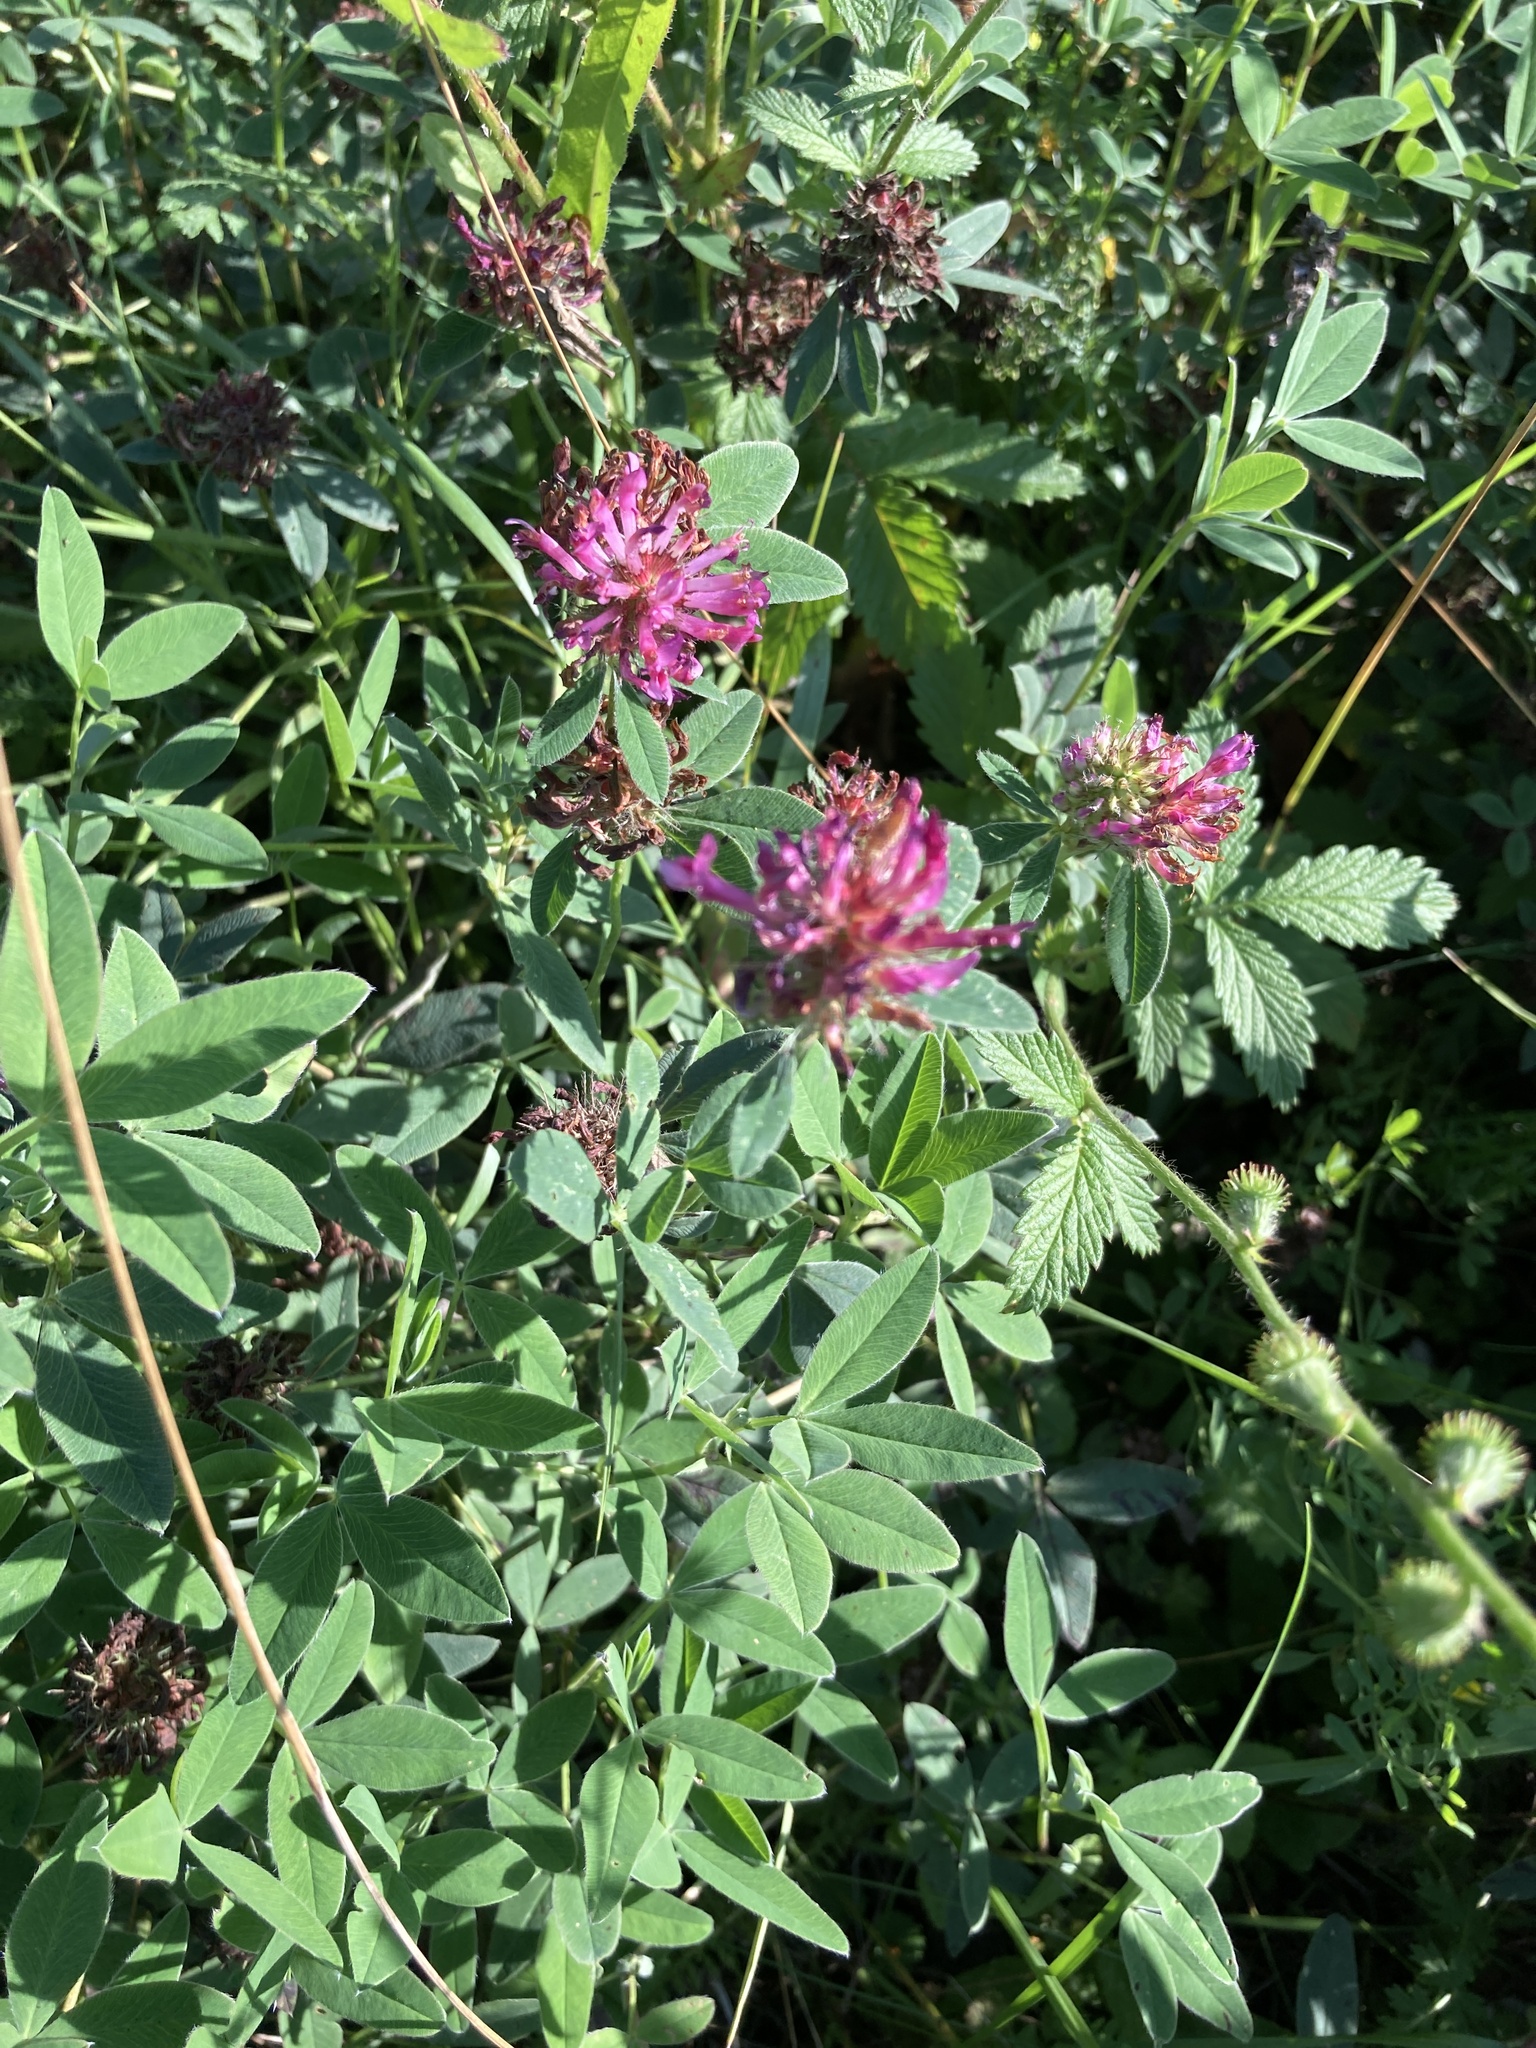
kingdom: Plantae
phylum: Tracheophyta
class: Magnoliopsida
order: Fabales
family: Fabaceae
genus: Trifolium
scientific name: Trifolium medium
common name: Zigzag clover
